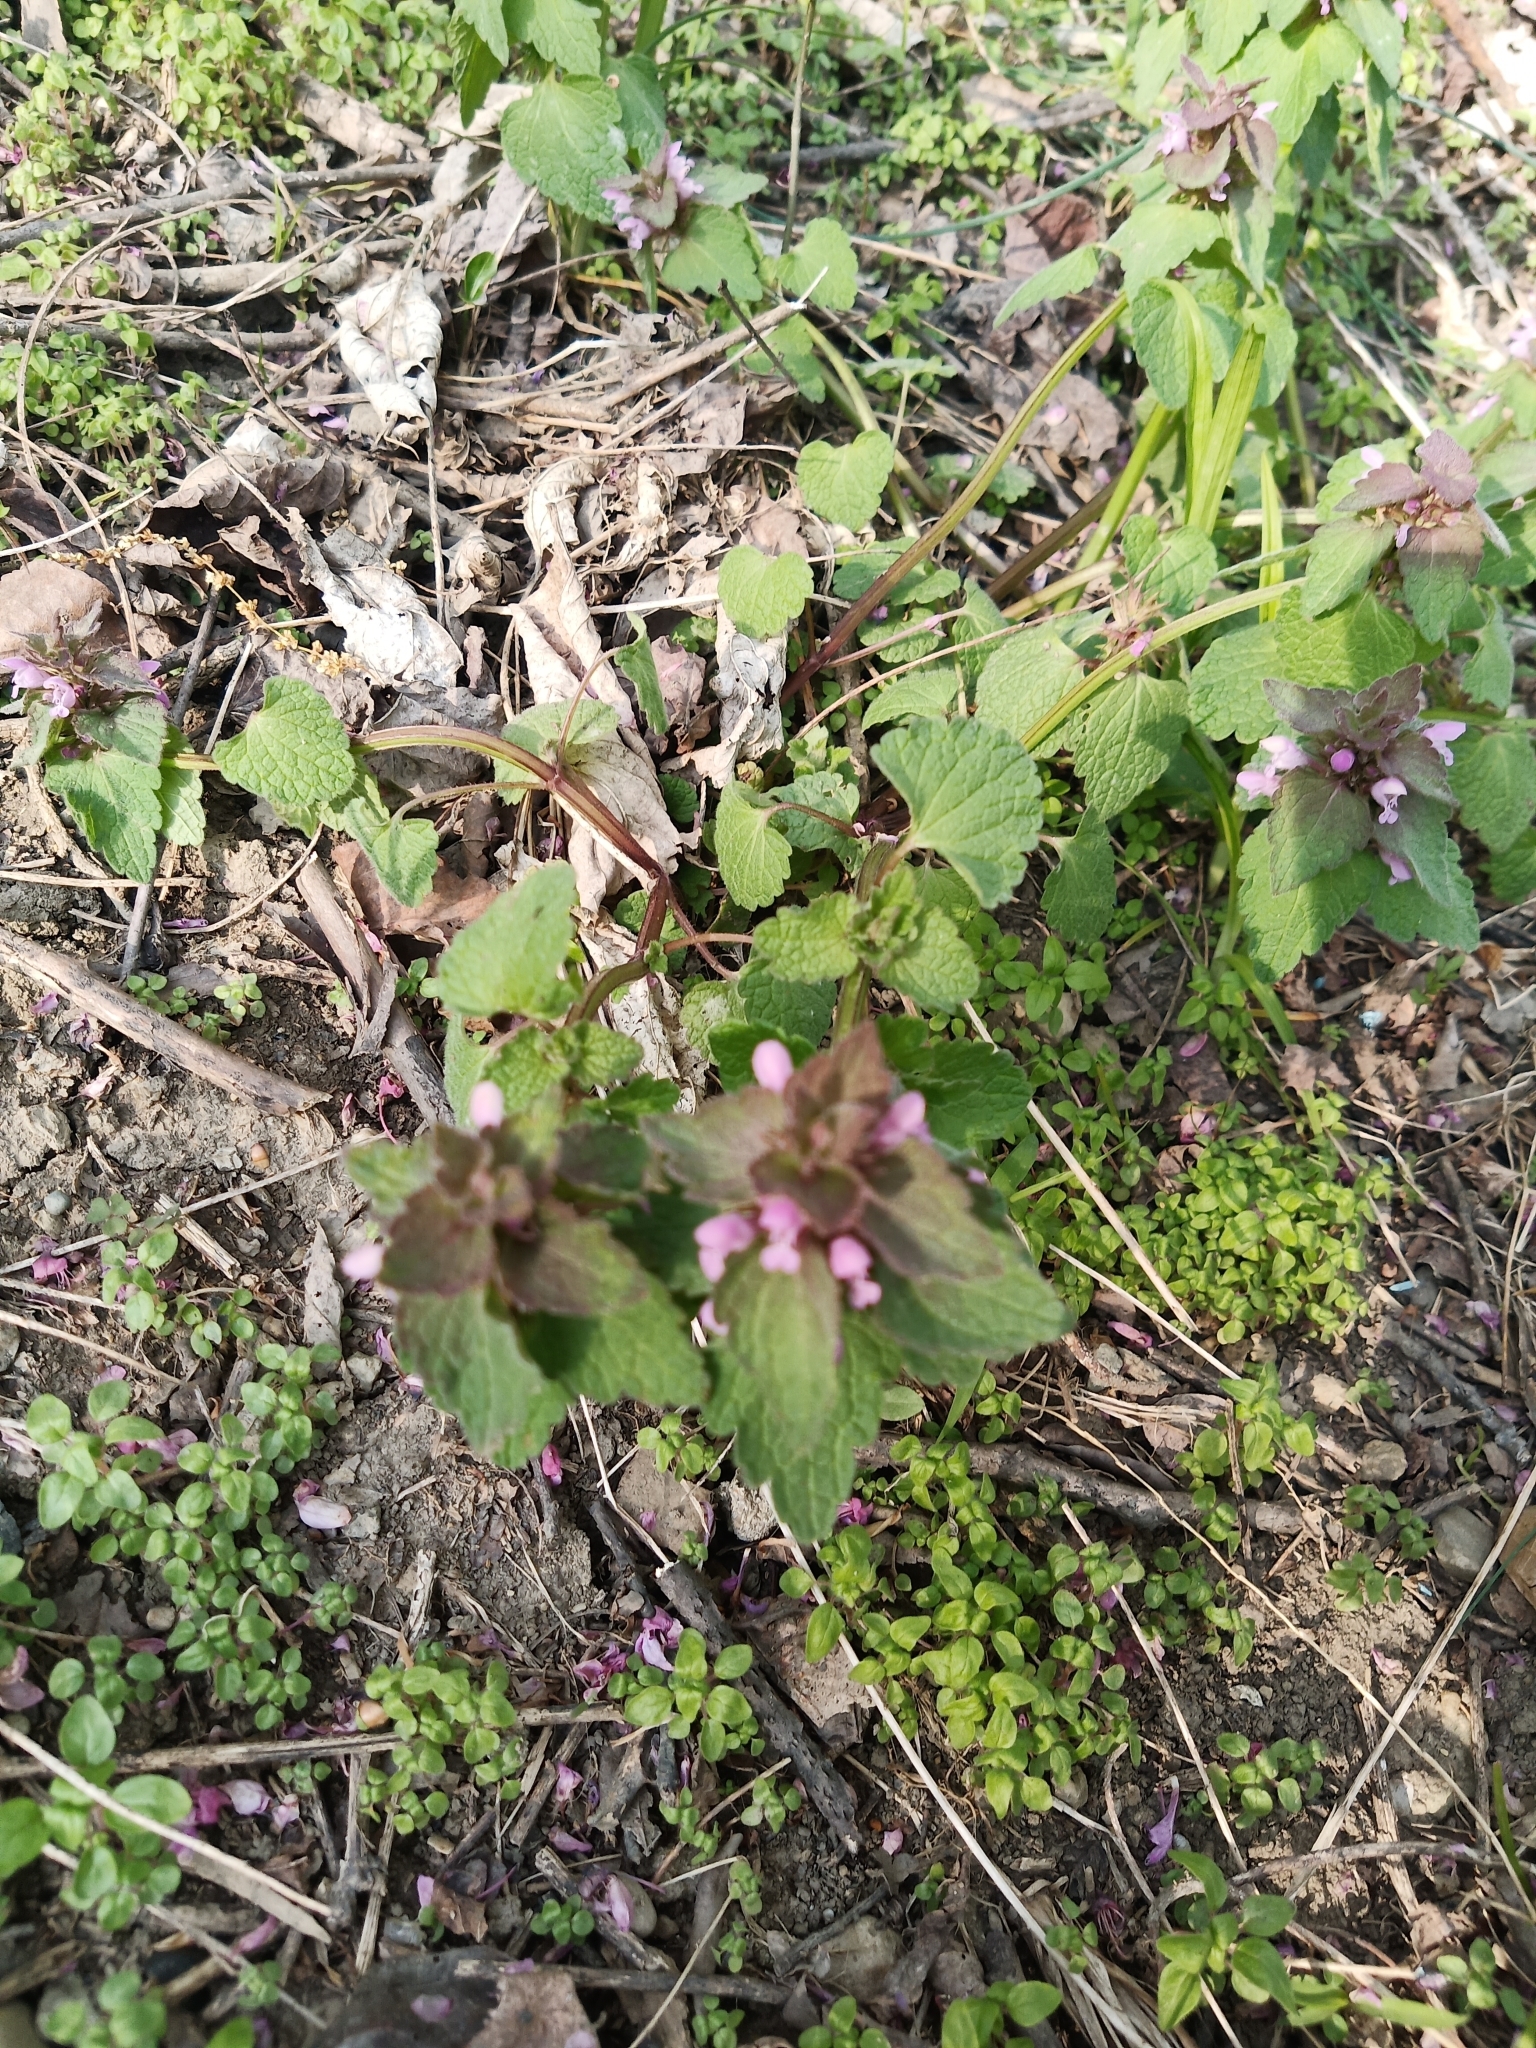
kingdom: Plantae
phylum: Tracheophyta
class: Magnoliopsida
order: Lamiales
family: Lamiaceae
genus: Lamium
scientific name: Lamium purpureum
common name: Red dead-nettle
